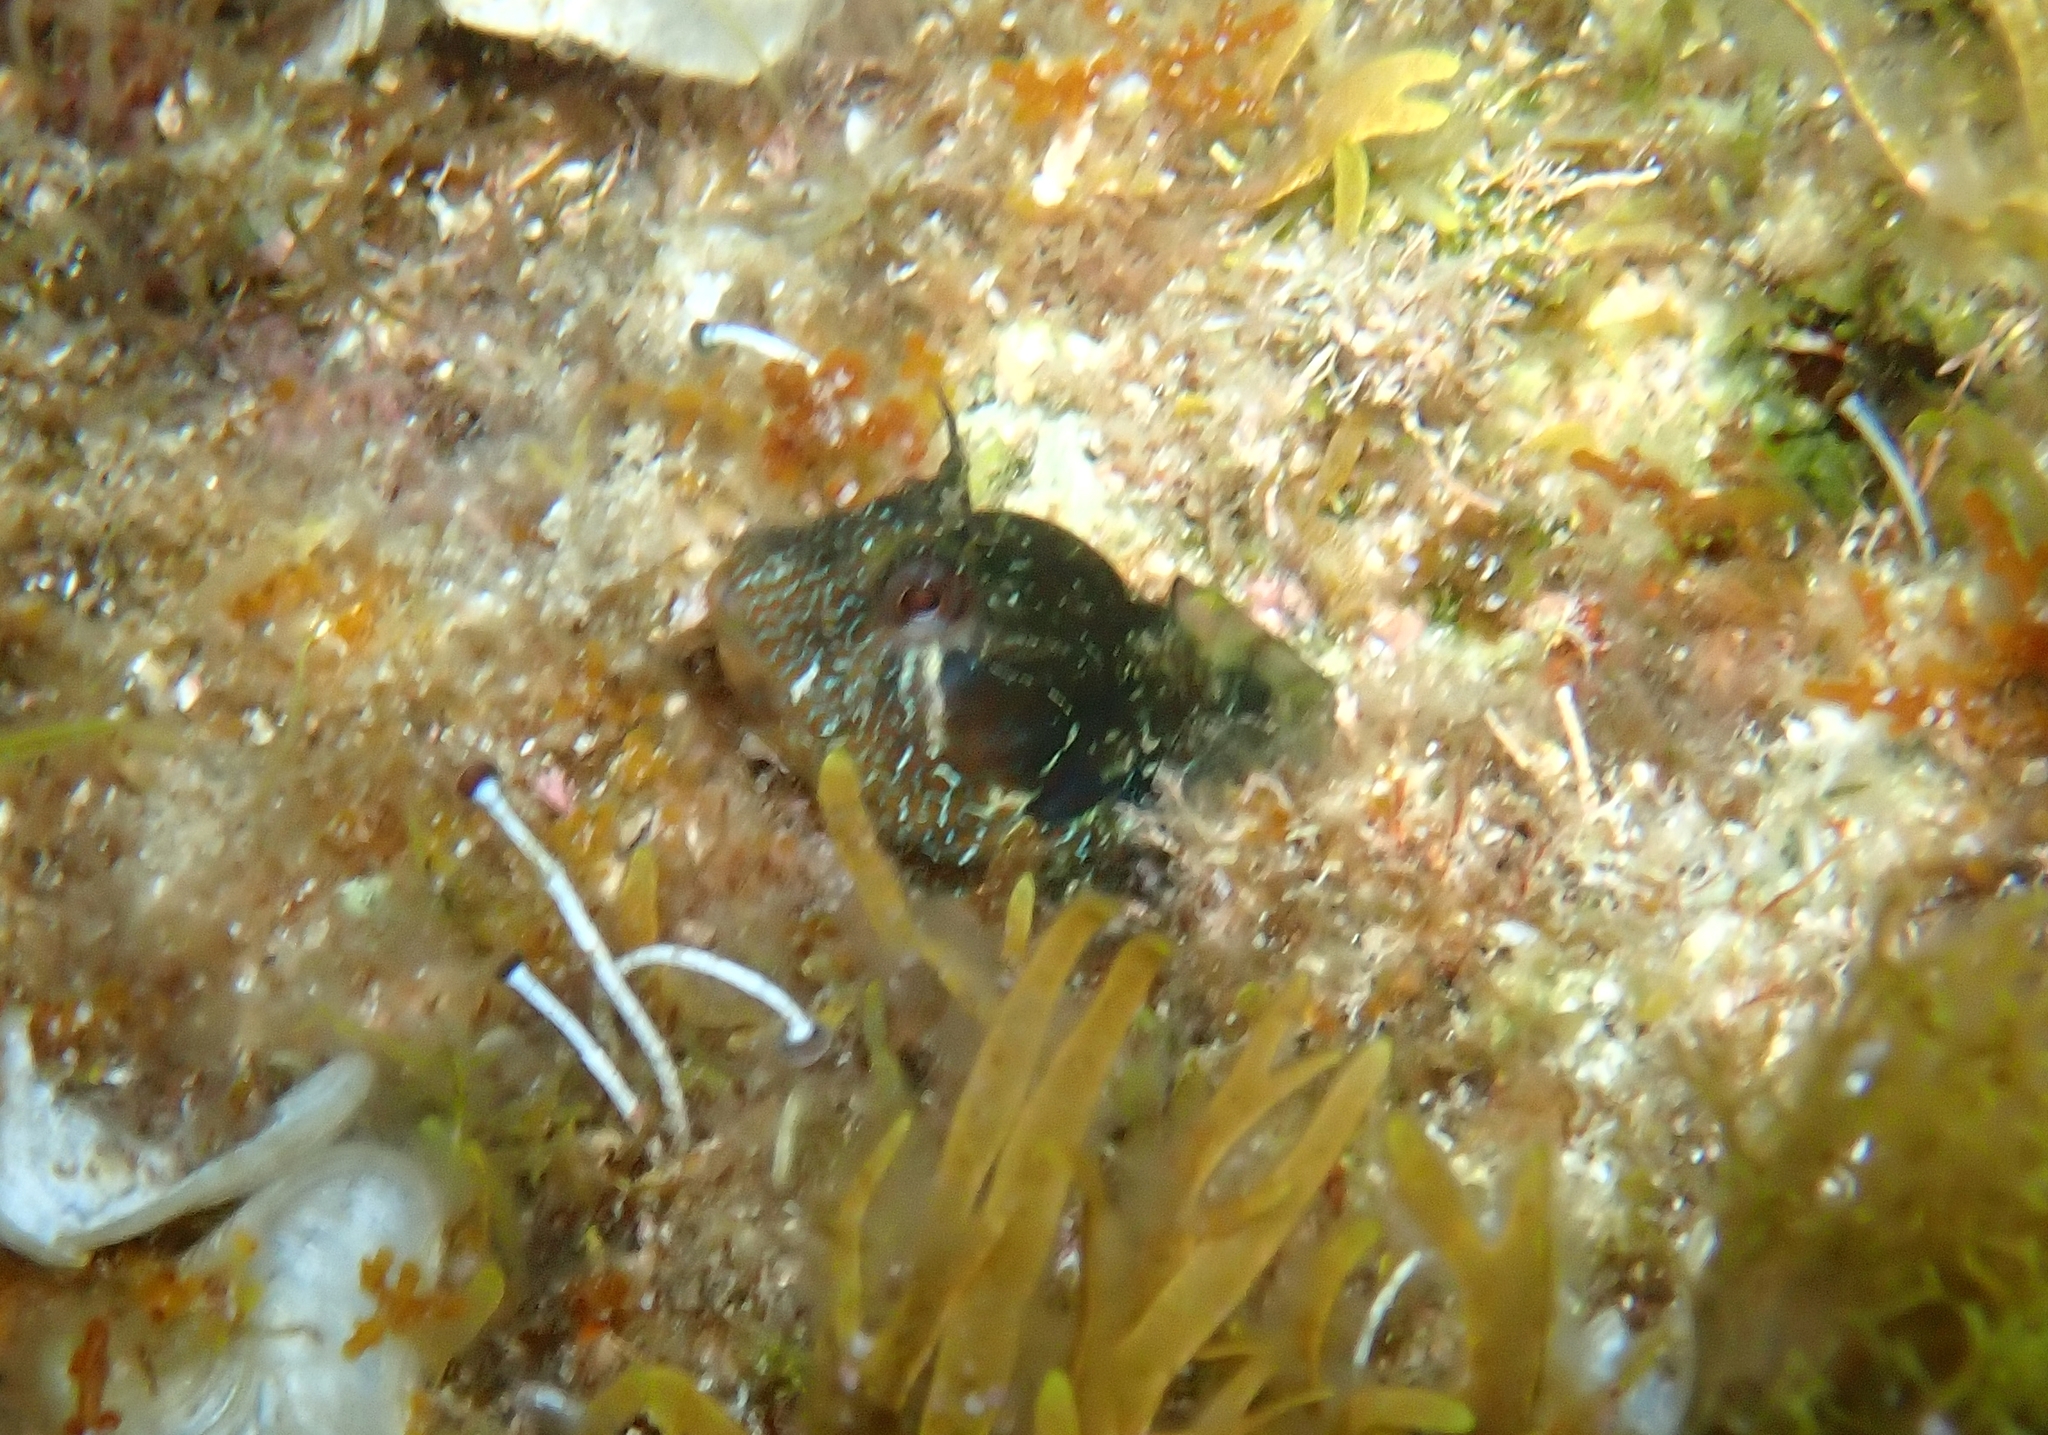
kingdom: Animalia
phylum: Chordata
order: Perciformes
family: Blenniidae
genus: Parablennius
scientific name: Parablennius incognitus
